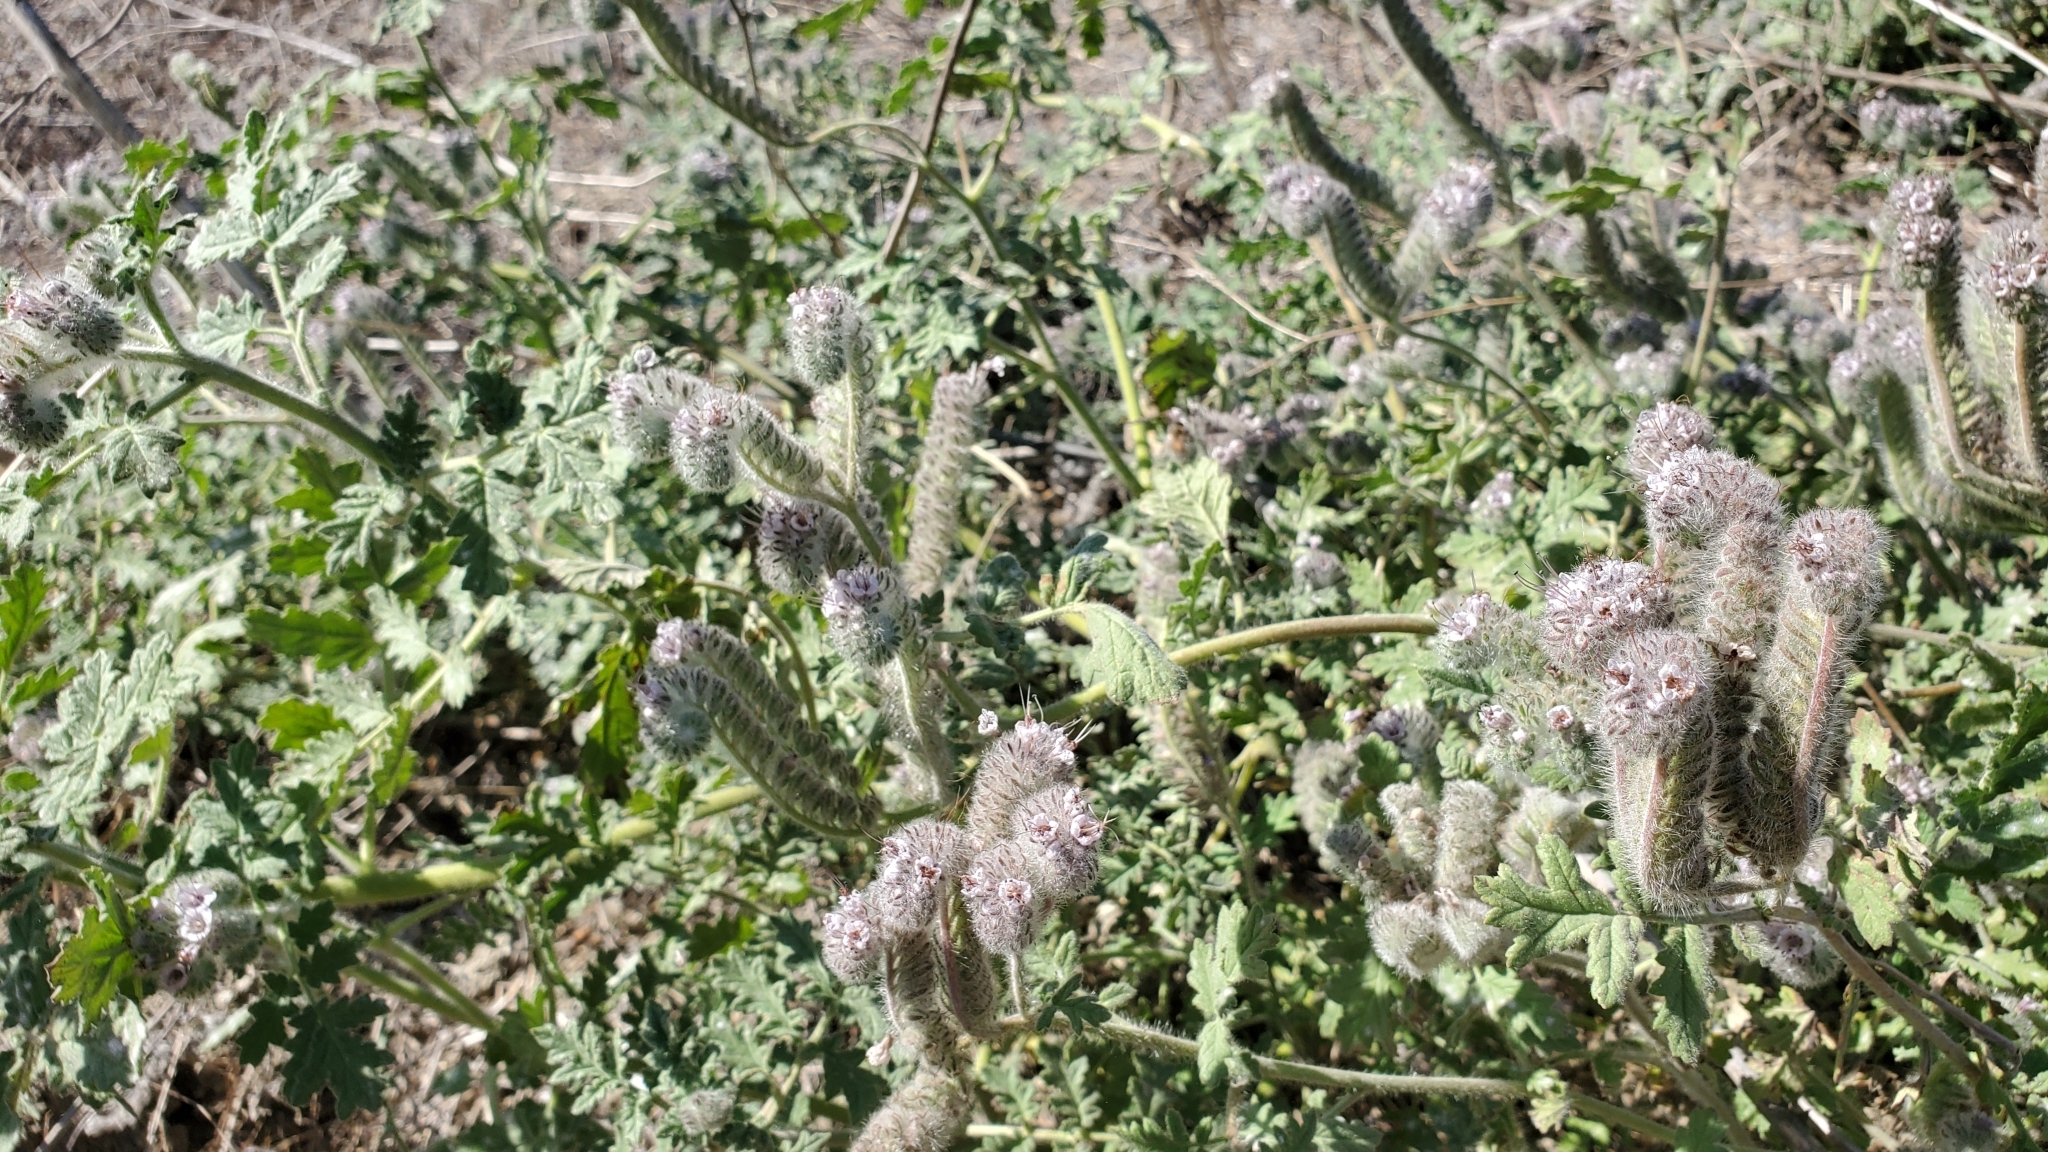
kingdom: Plantae
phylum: Tracheophyta
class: Magnoliopsida
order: Boraginales
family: Hydrophyllaceae
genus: Phacelia
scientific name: Phacelia hubbyi
